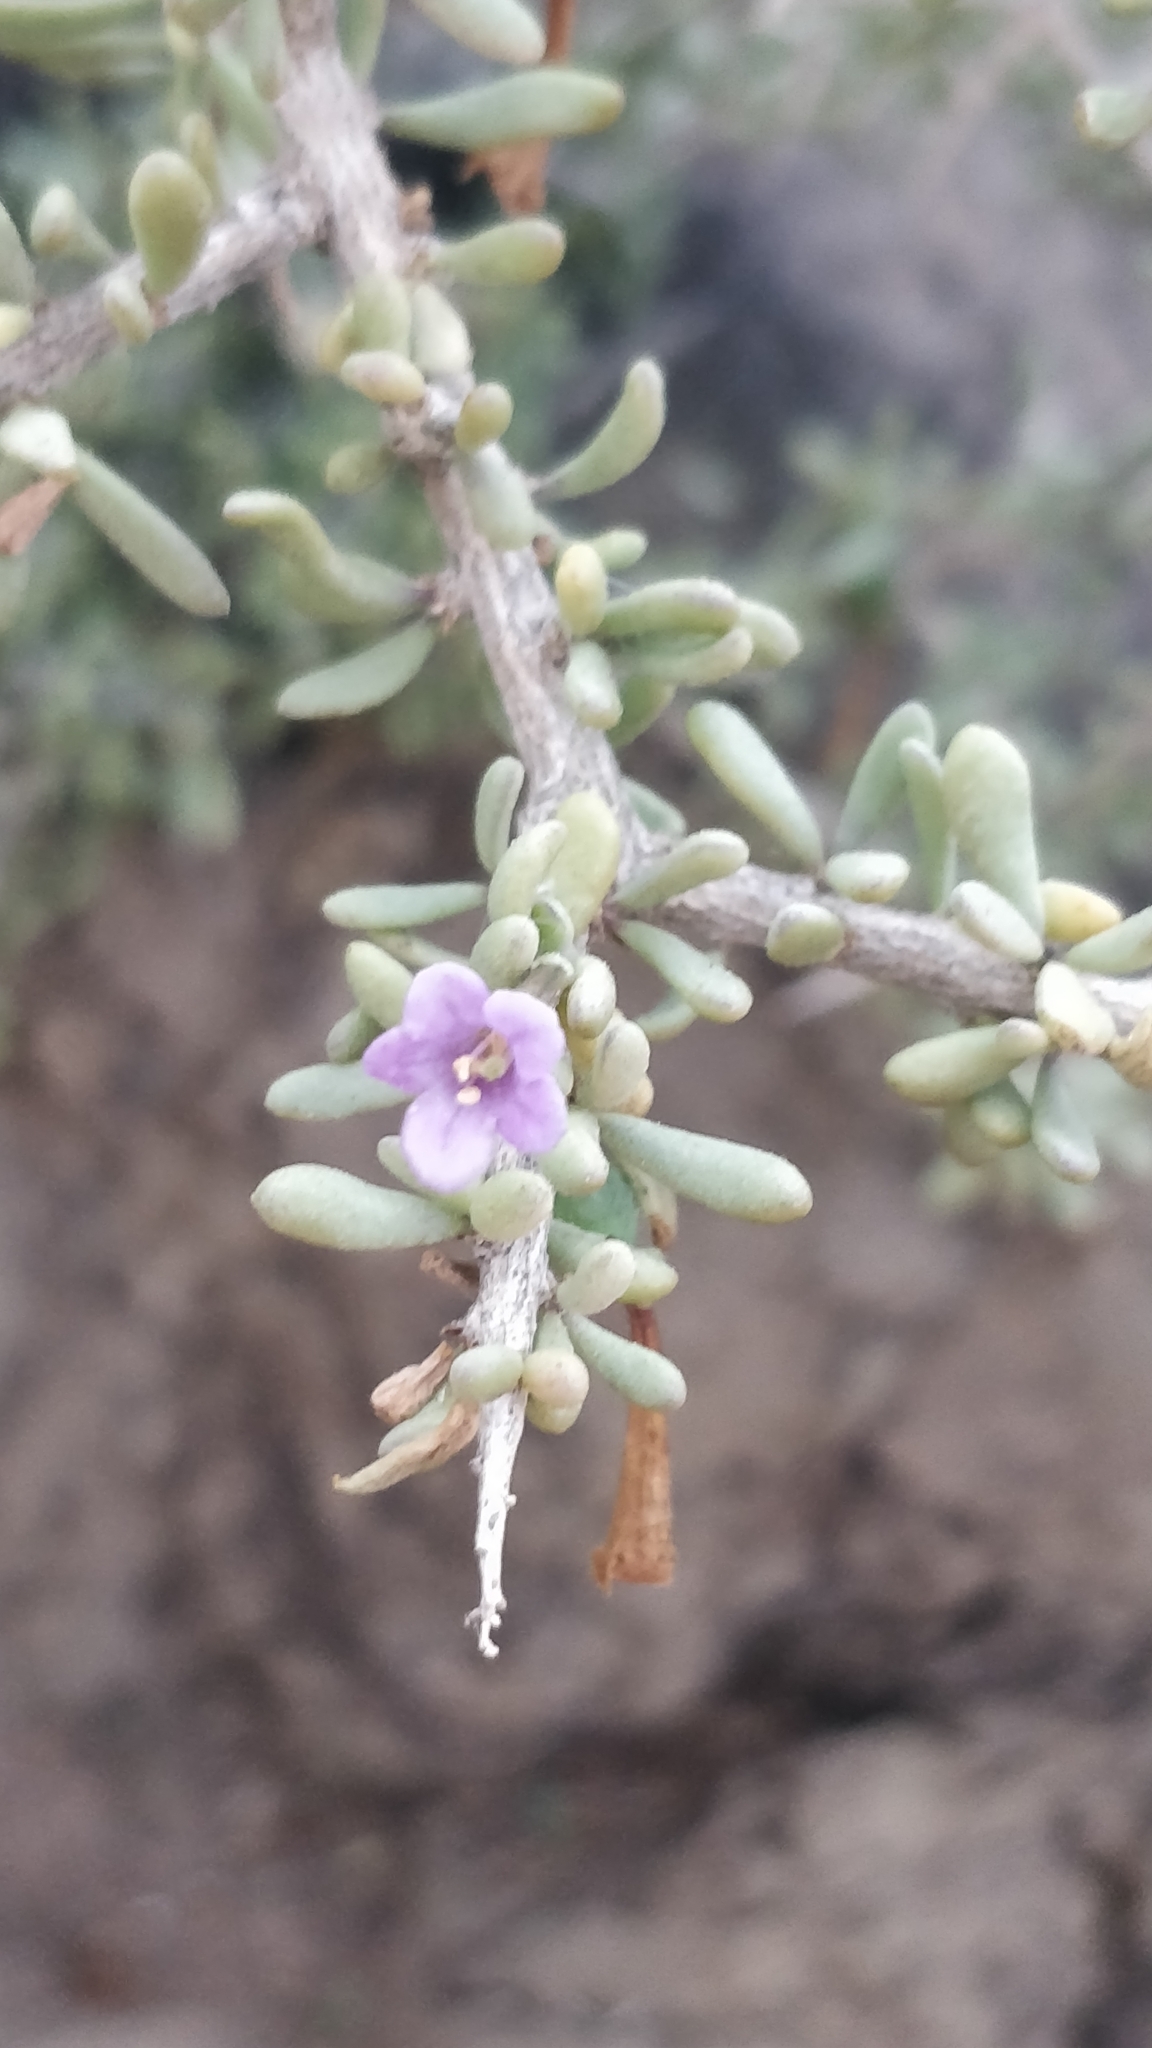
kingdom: Plantae
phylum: Tracheophyta
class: Magnoliopsida
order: Solanales
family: Solanaceae
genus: Lycium
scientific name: Lycium intricatum
